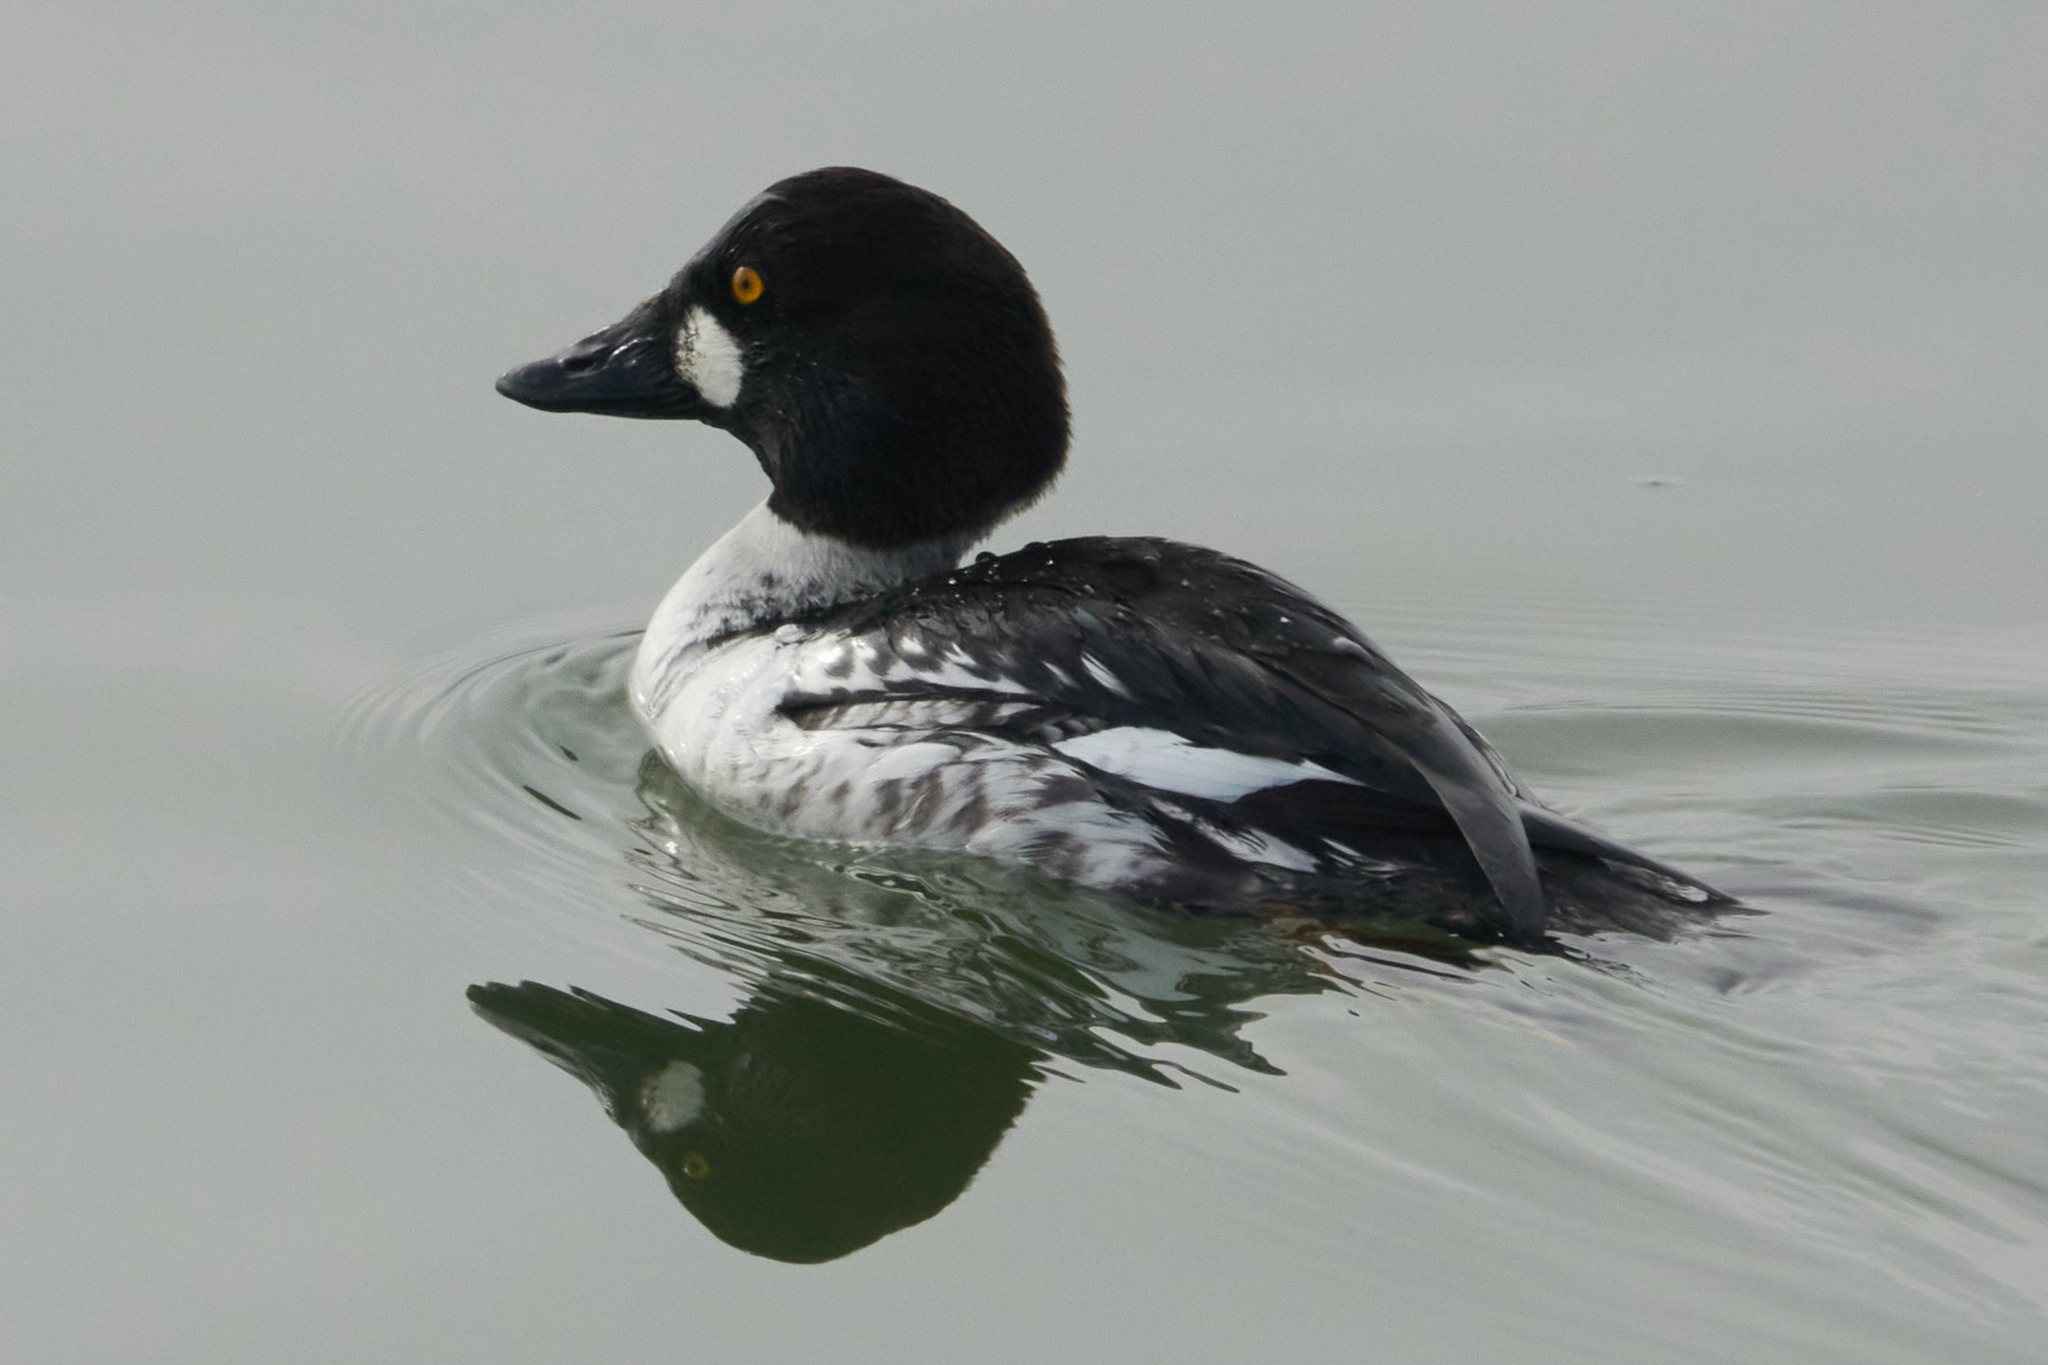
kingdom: Animalia
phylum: Chordata
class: Aves
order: Anseriformes
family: Anatidae
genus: Bucephala
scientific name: Bucephala clangula
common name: Common goldeneye
